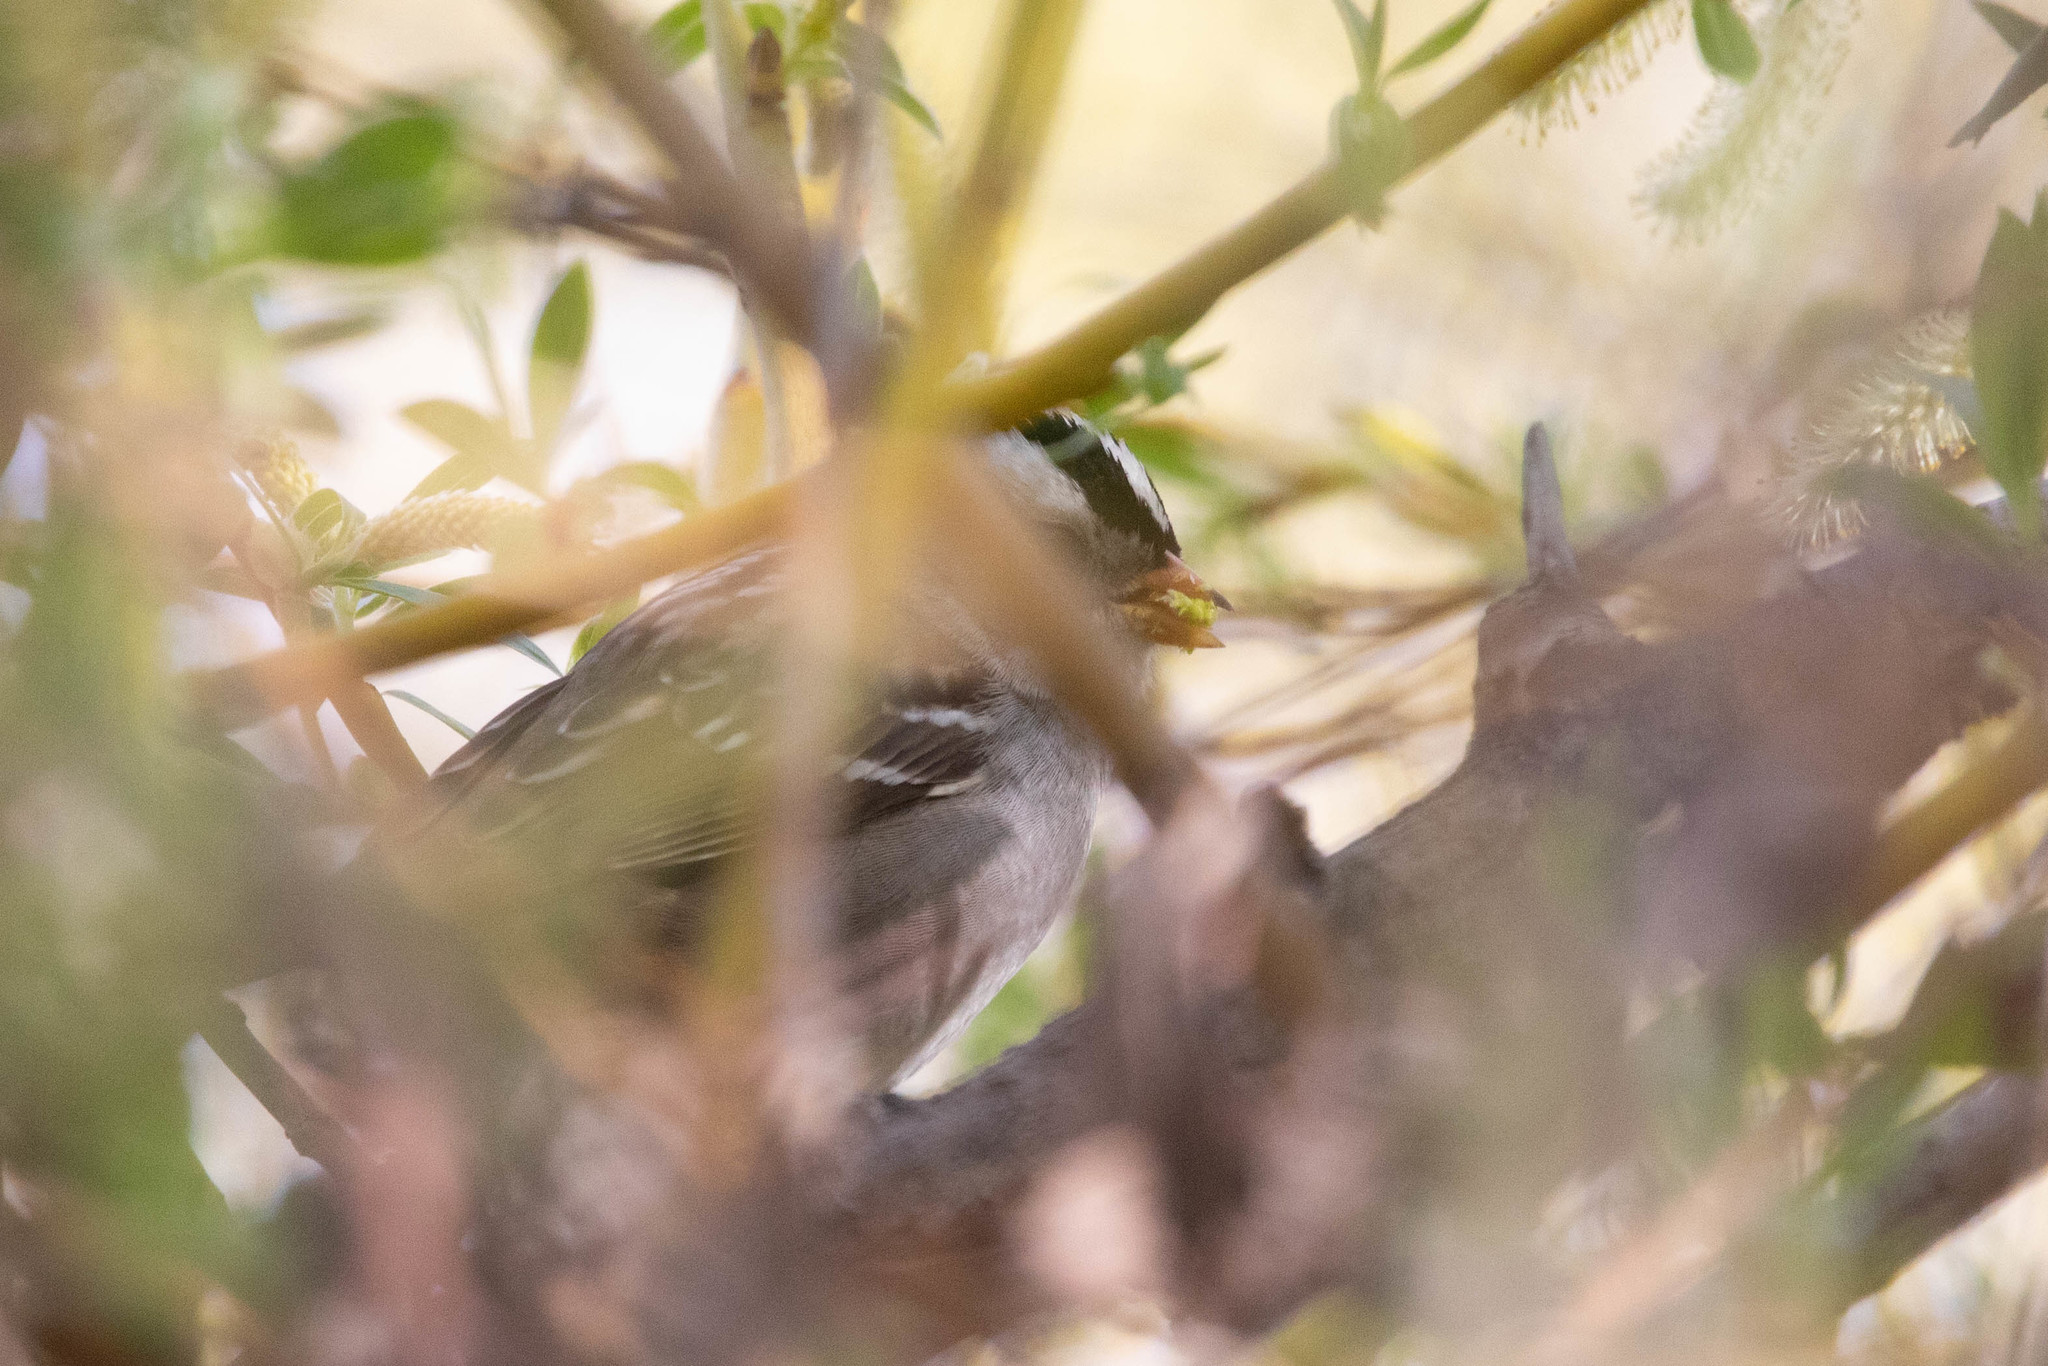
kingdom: Animalia
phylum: Chordata
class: Aves
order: Passeriformes
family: Passerellidae
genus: Zonotrichia
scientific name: Zonotrichia leucophrys
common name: White-crowned sparrow
